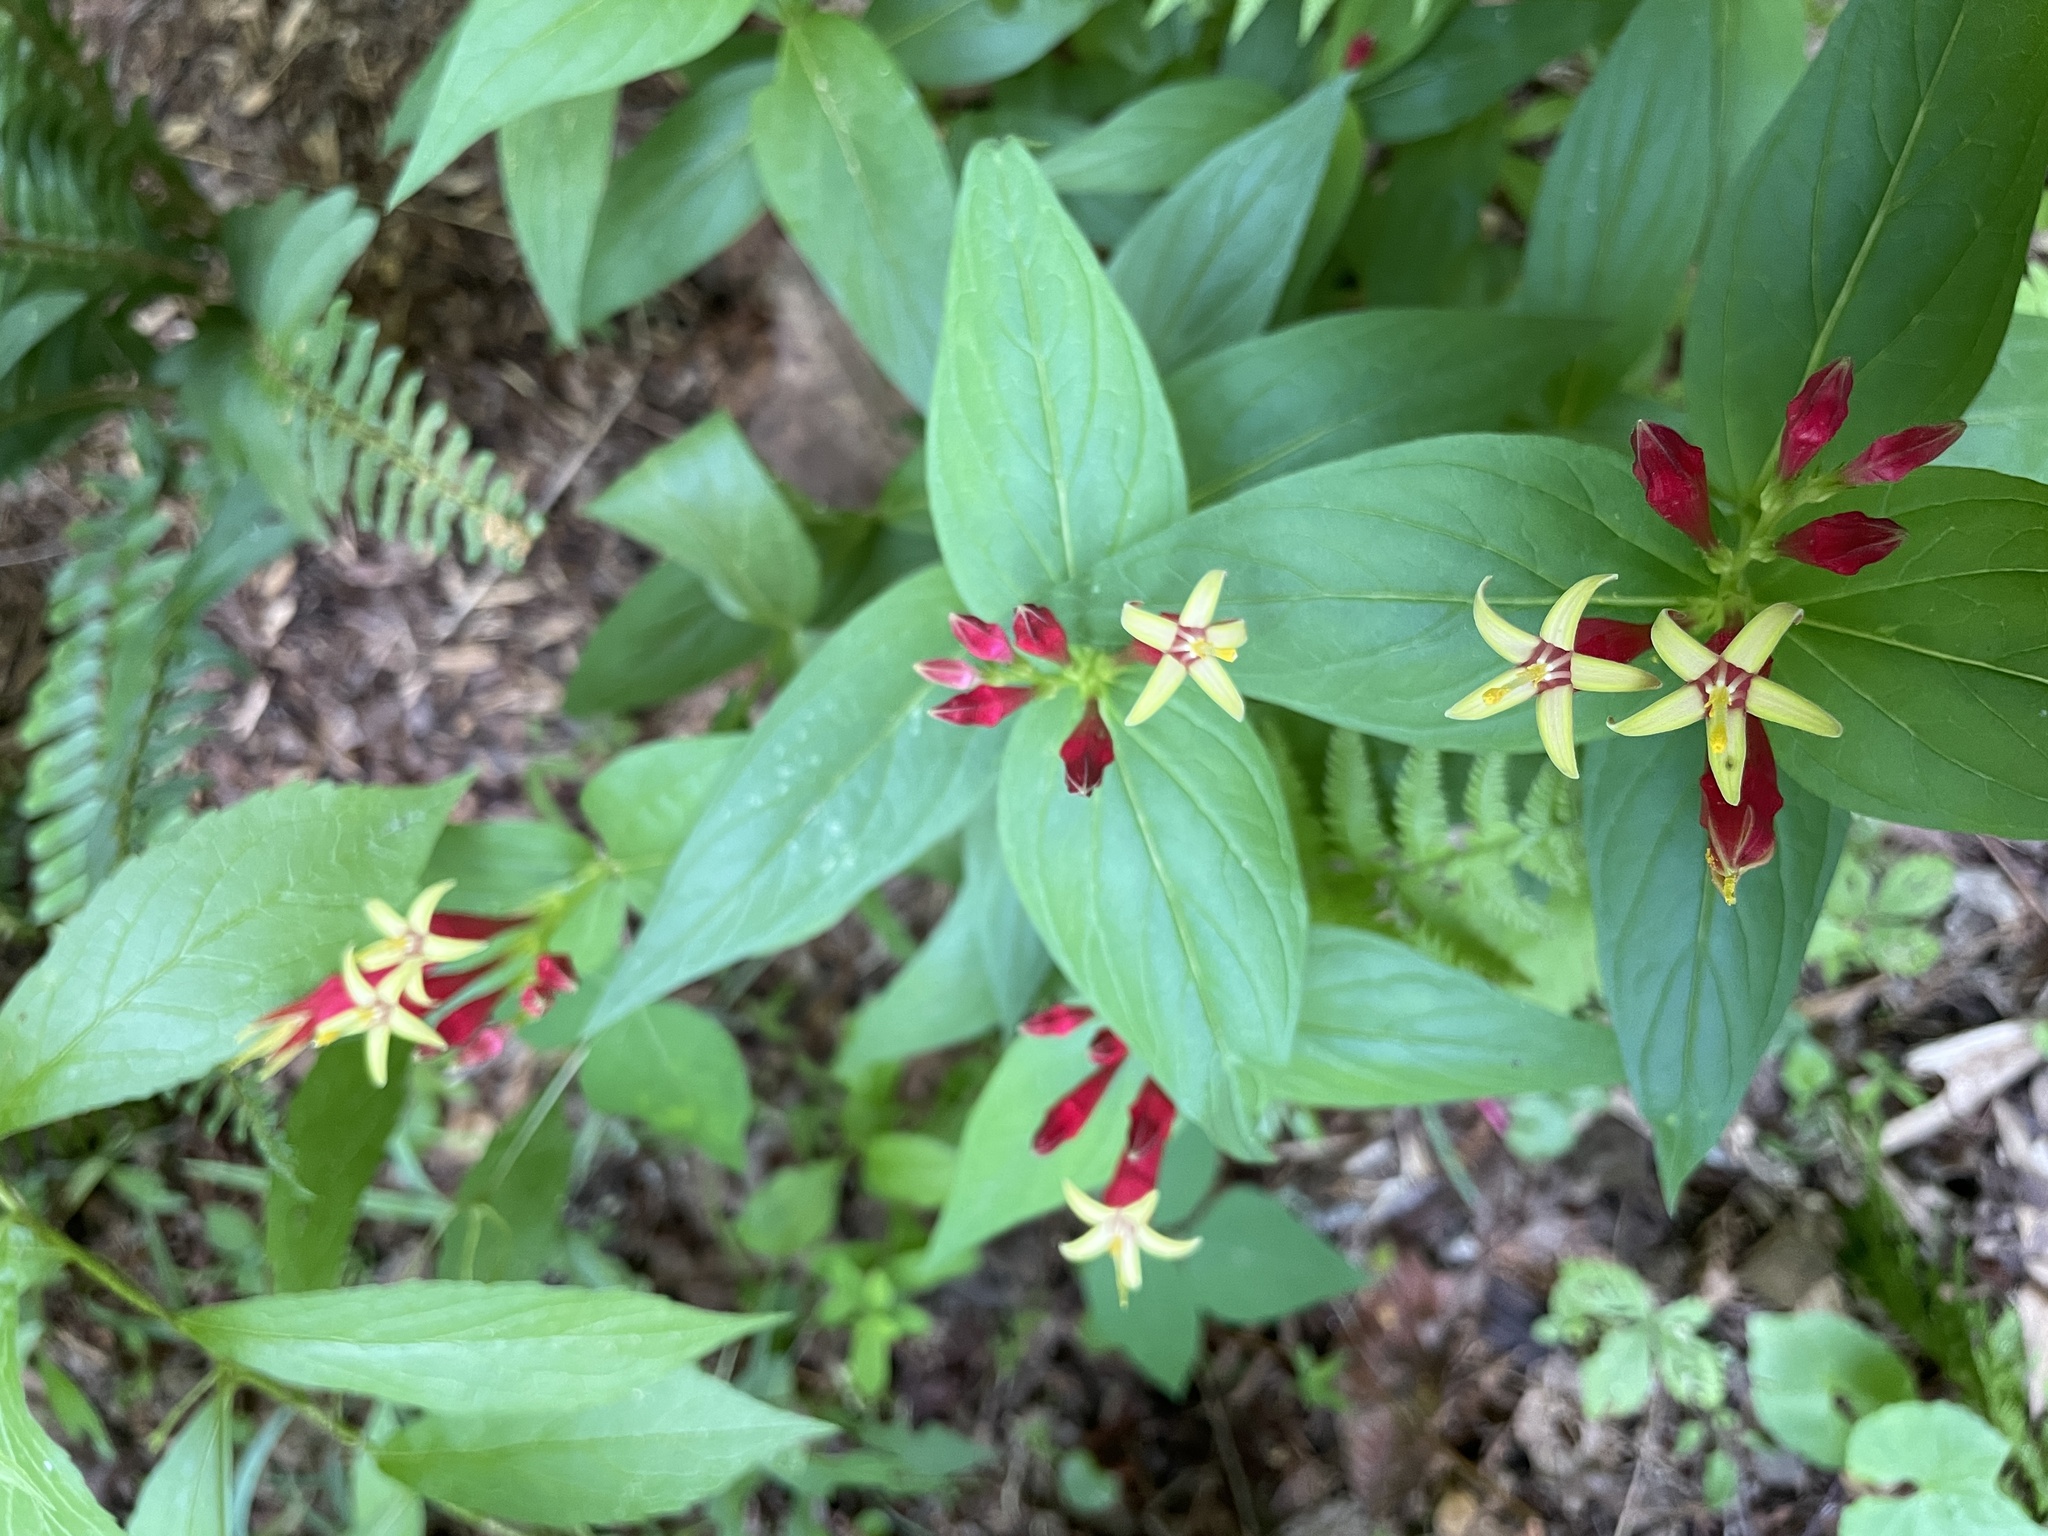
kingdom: Plantae
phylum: Tracheophyta
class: Magnoliopsida
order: Gentianales
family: Loganiaceae
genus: Spigelia
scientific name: Spigelia marilandica
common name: Indian-pink
